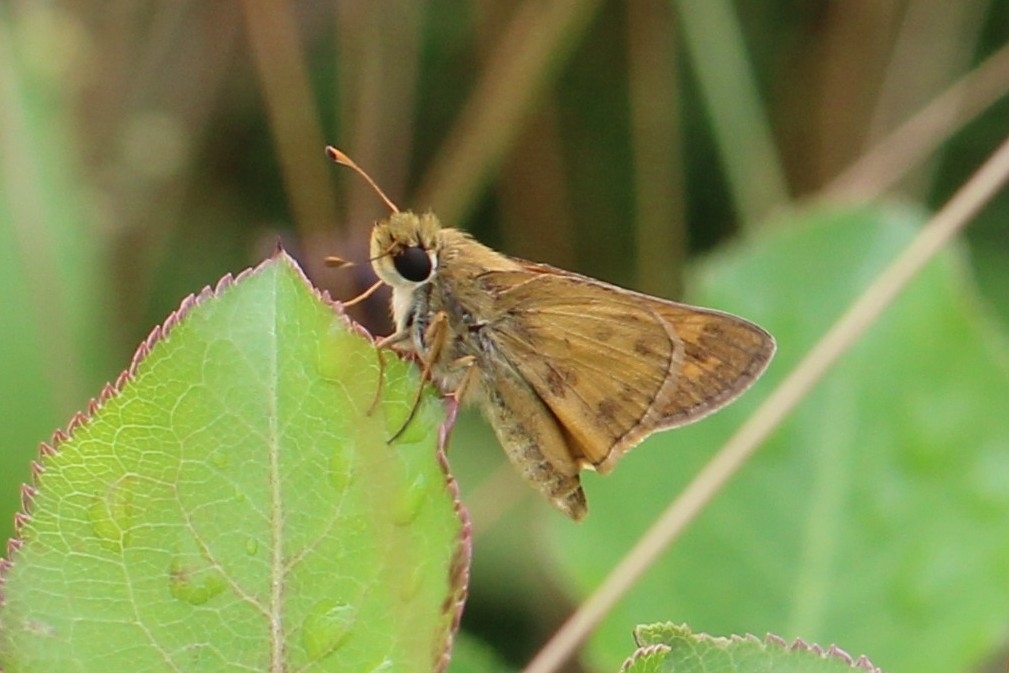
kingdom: Animalia
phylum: Arthropoda
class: Insecta
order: Lepidoptera
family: Hesperiidae
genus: Atalopedes
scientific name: Atalopedes
